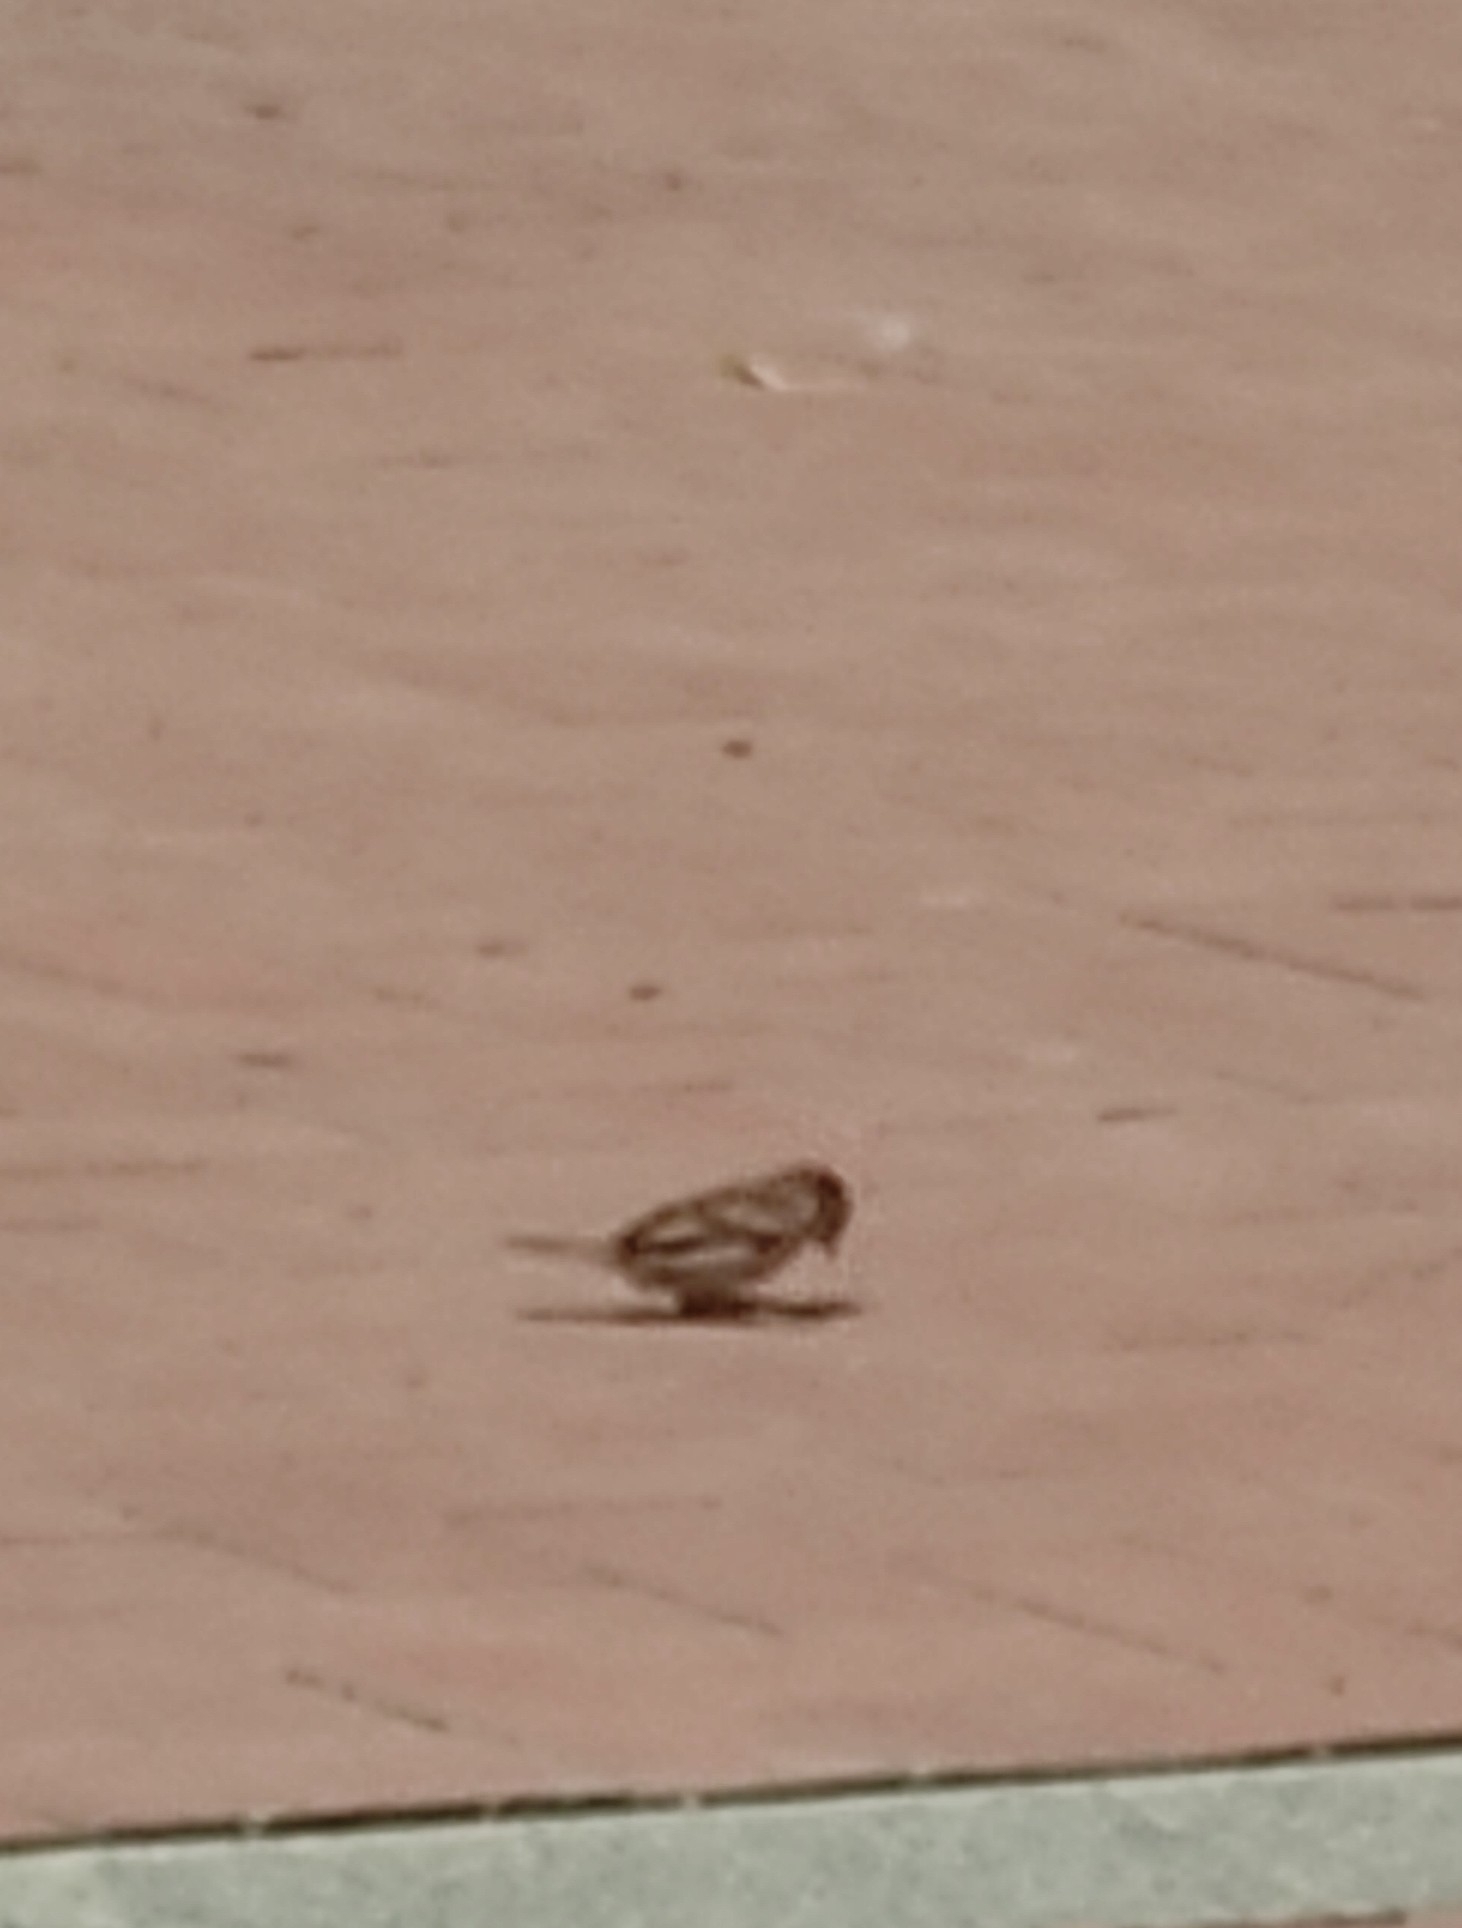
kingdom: Animalia
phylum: Chordata
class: Aves
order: Passeriformes
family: Passeridae
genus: Passer
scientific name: Passer domesticus
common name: House sparrow
